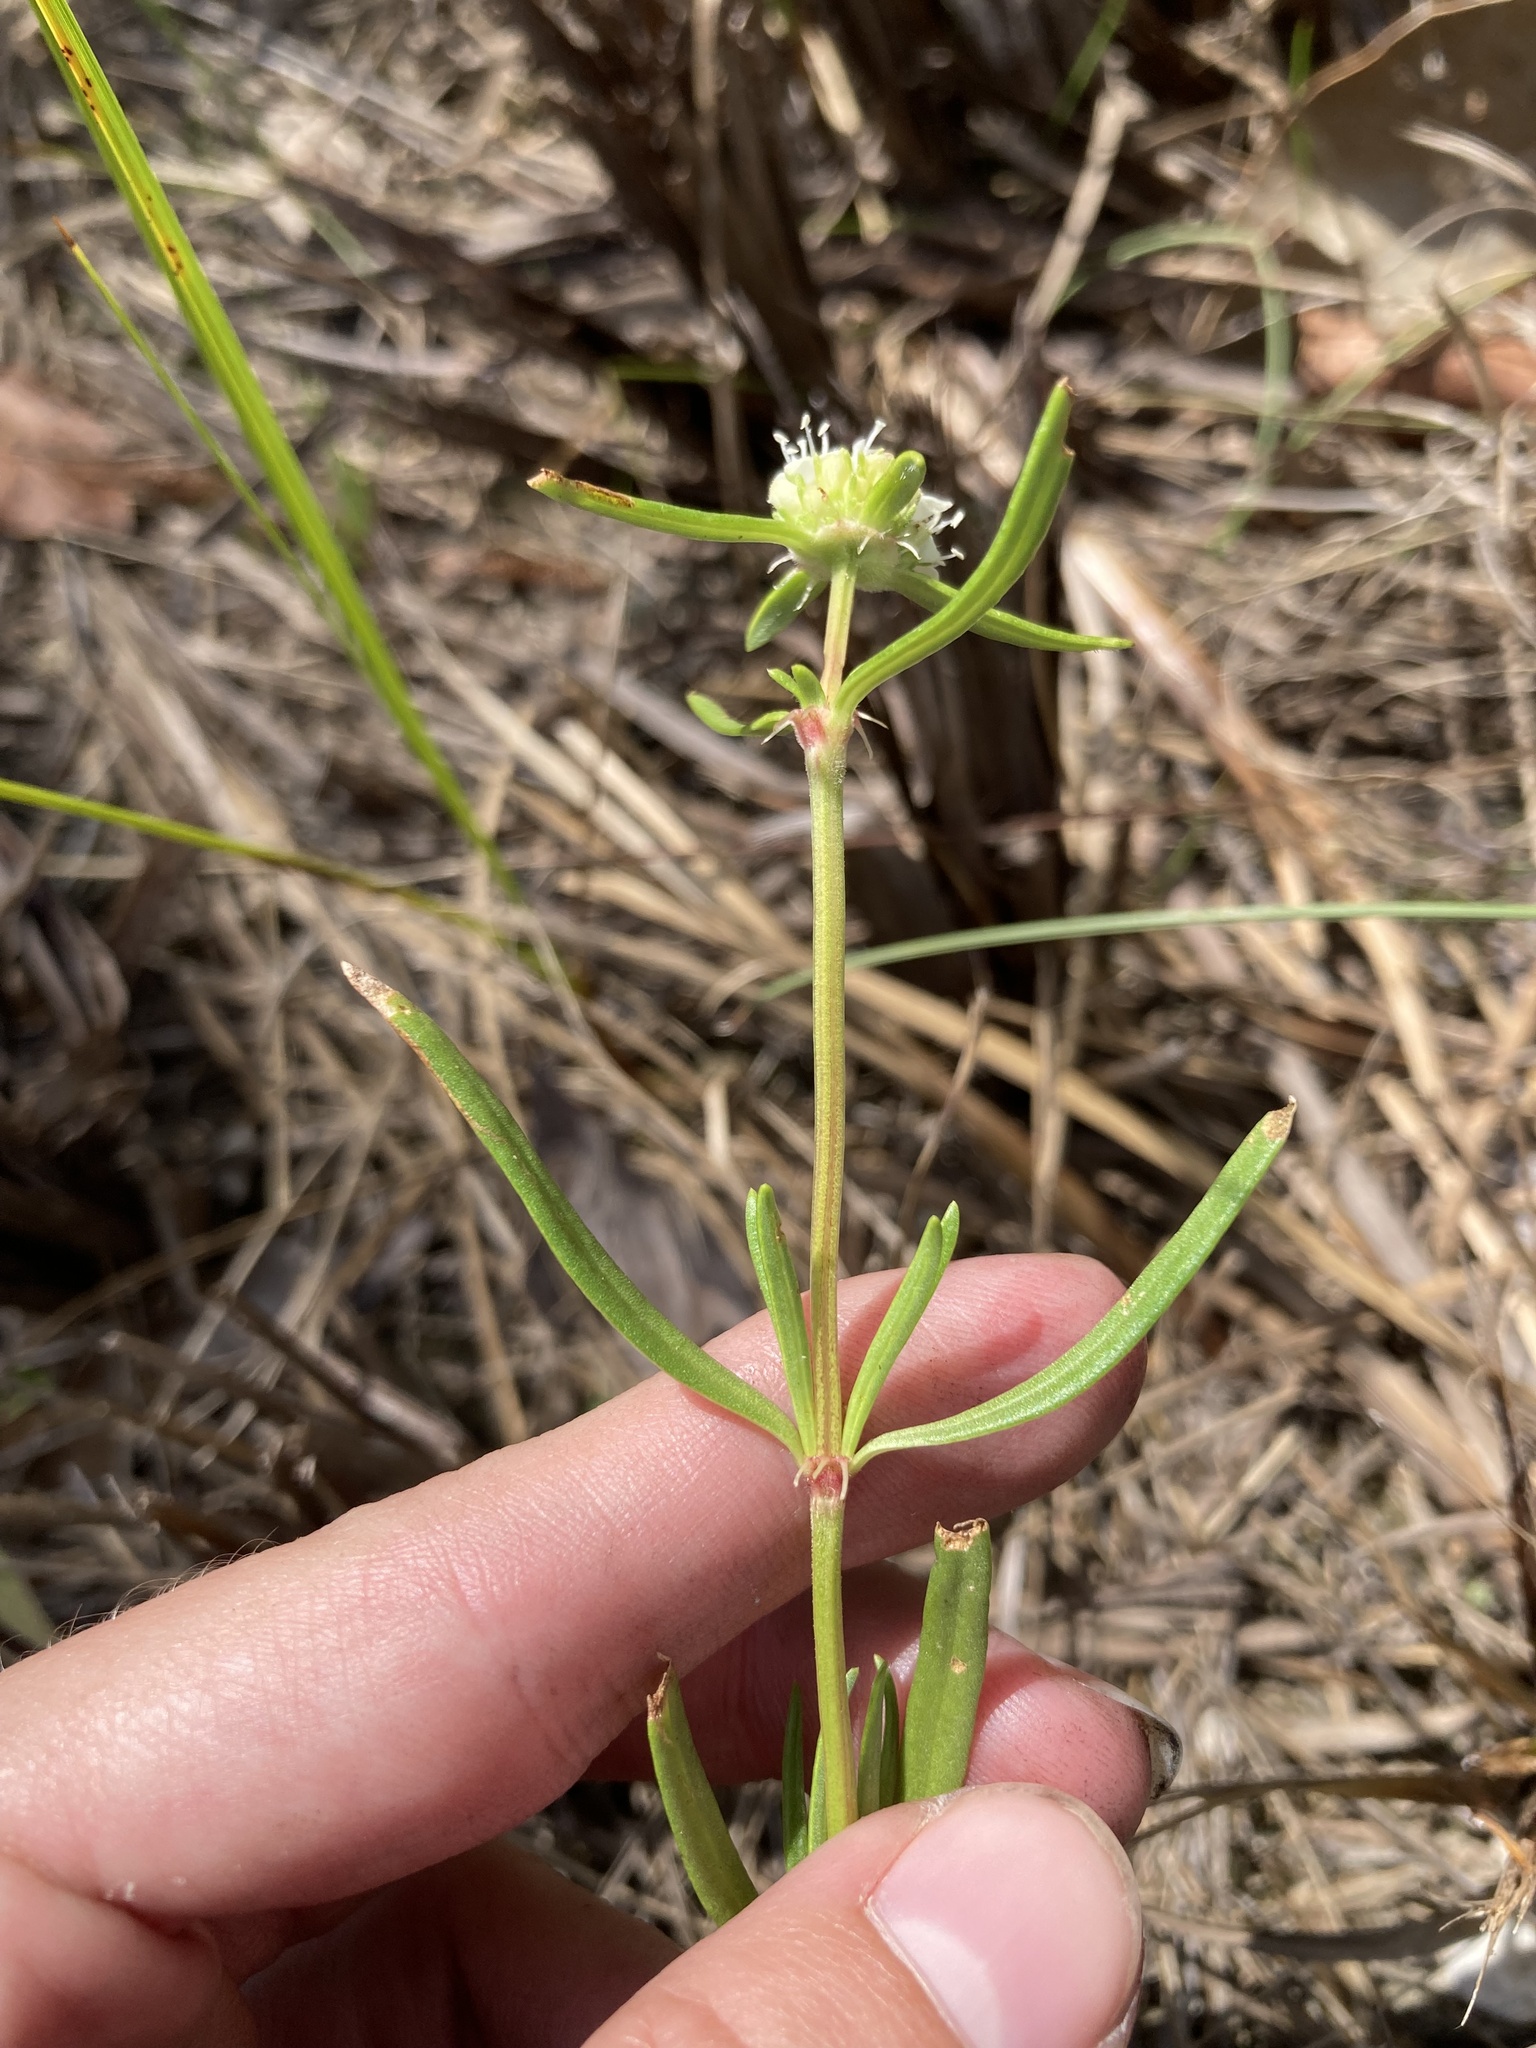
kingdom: Plantae
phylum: Tracheophyta
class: Magnoliopsida
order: Gentianales
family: Rubiaceae
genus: Spermacoce
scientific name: Spermacoce neoterminalis
